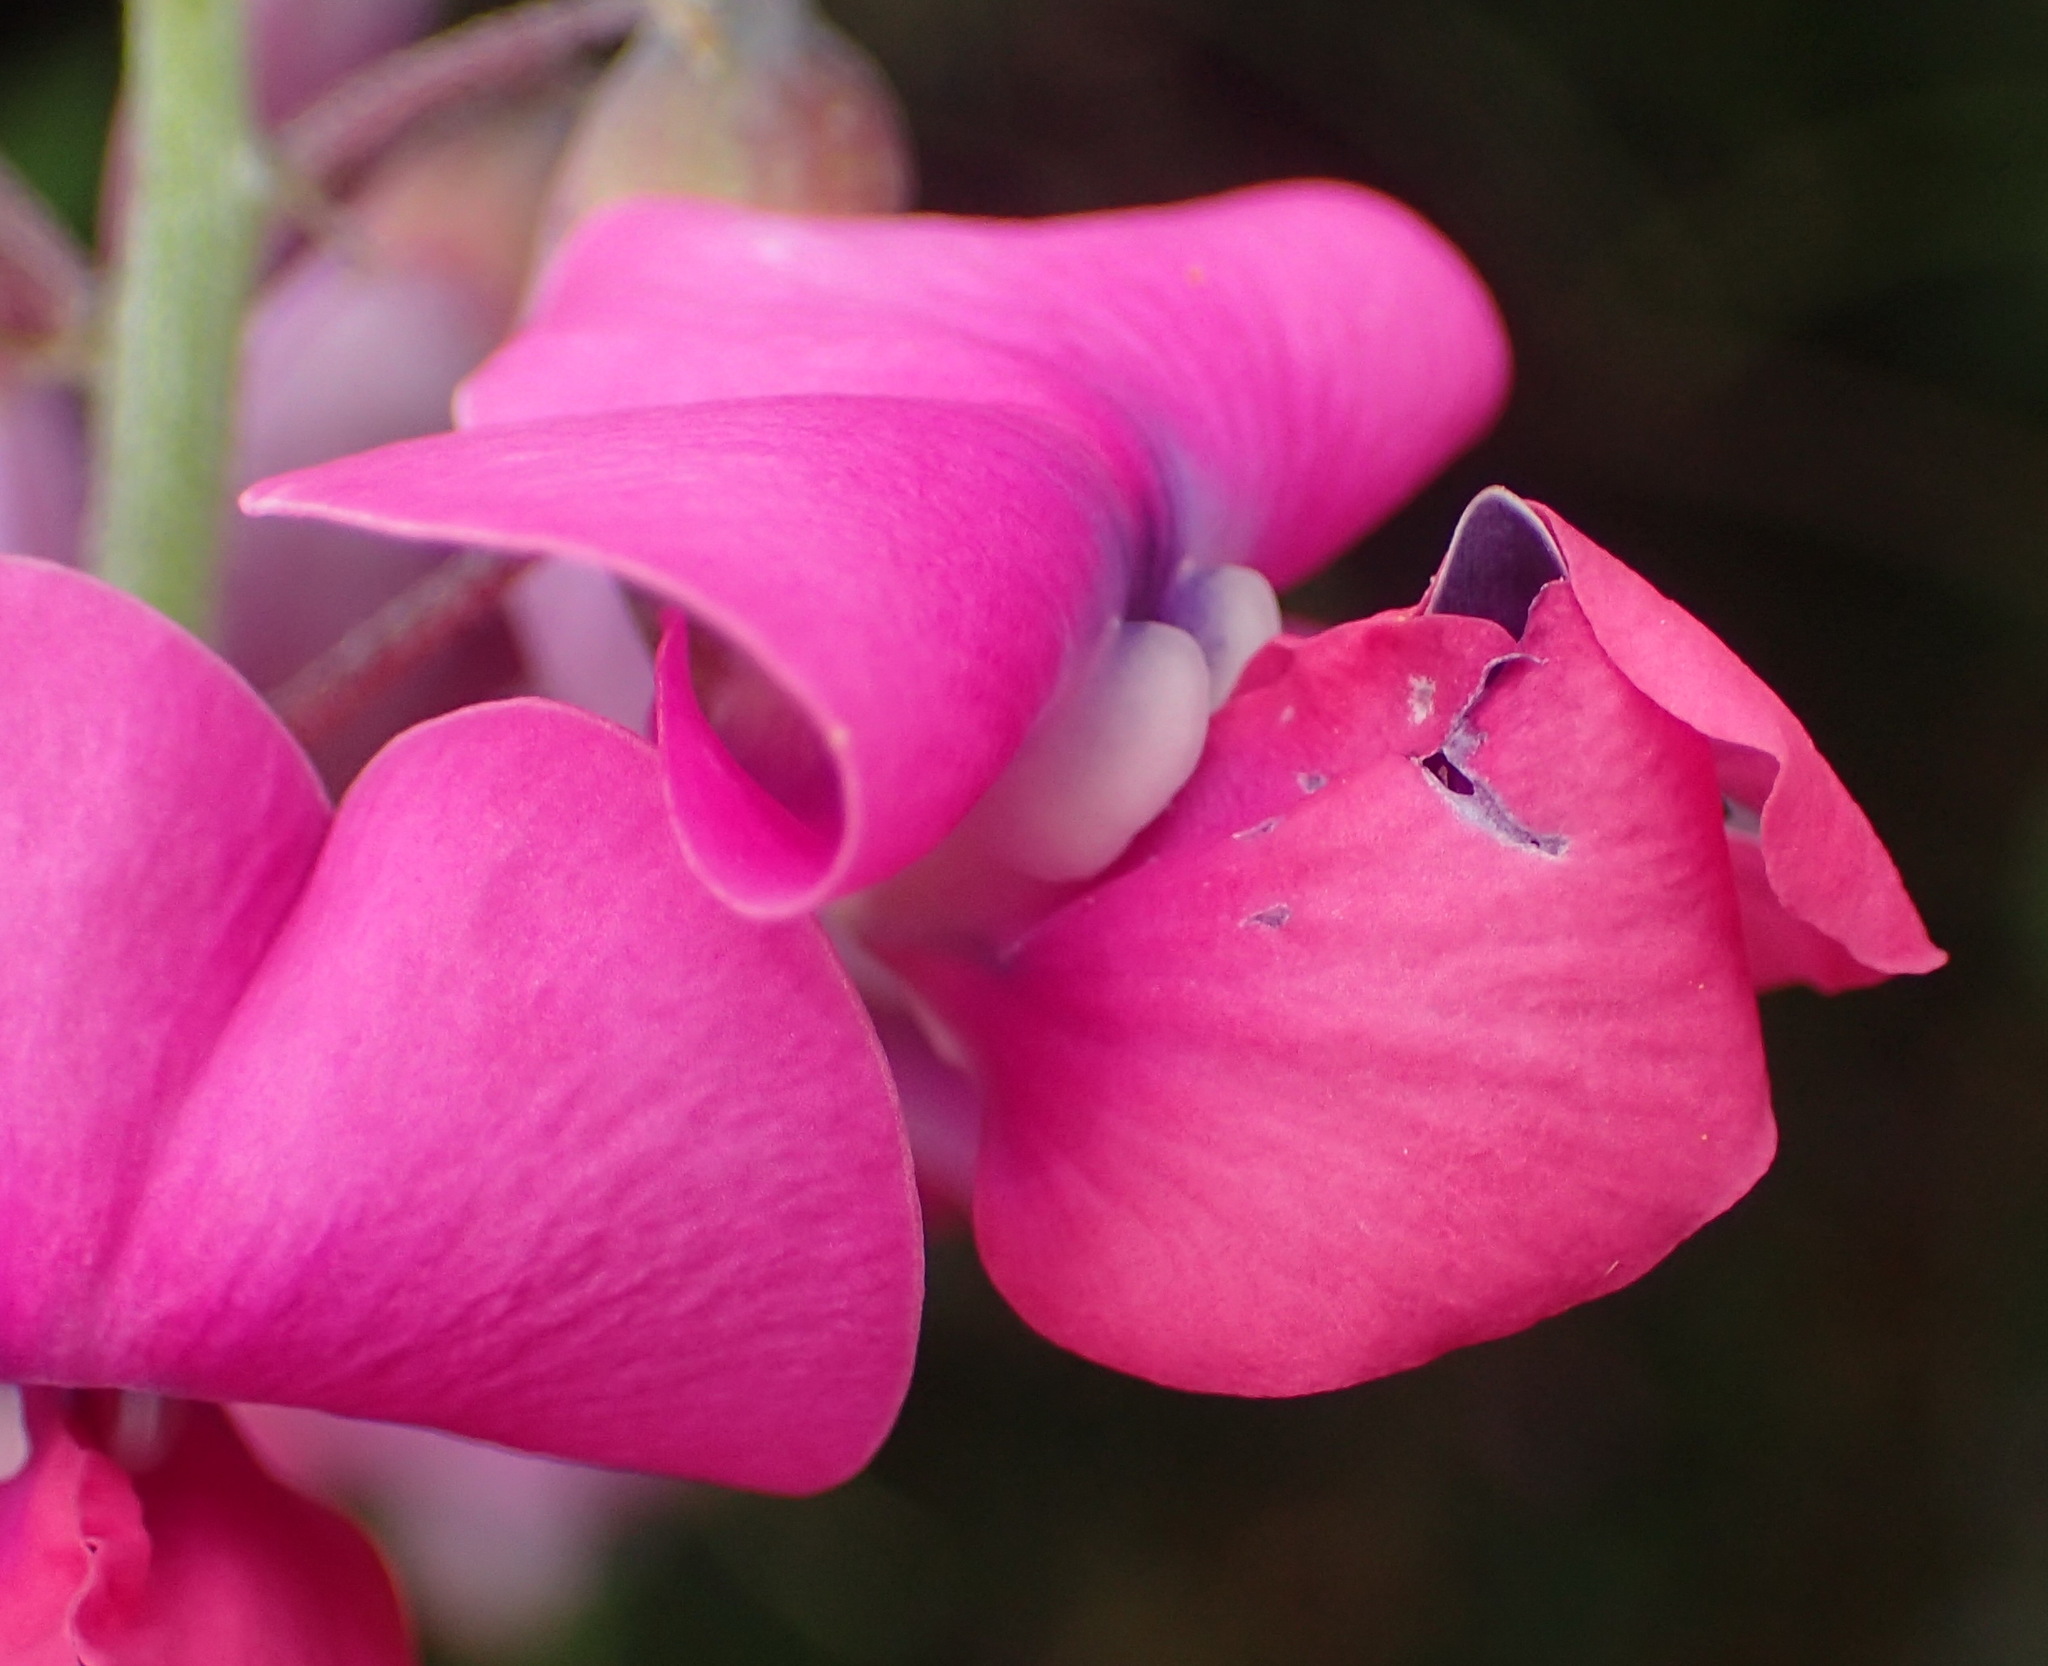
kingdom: Plantae
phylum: Tracheophyta
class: Magnoliopsida
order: Fabales
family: Fabaceae
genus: Dipogon
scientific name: Dipogon lignosus
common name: Okie bean
